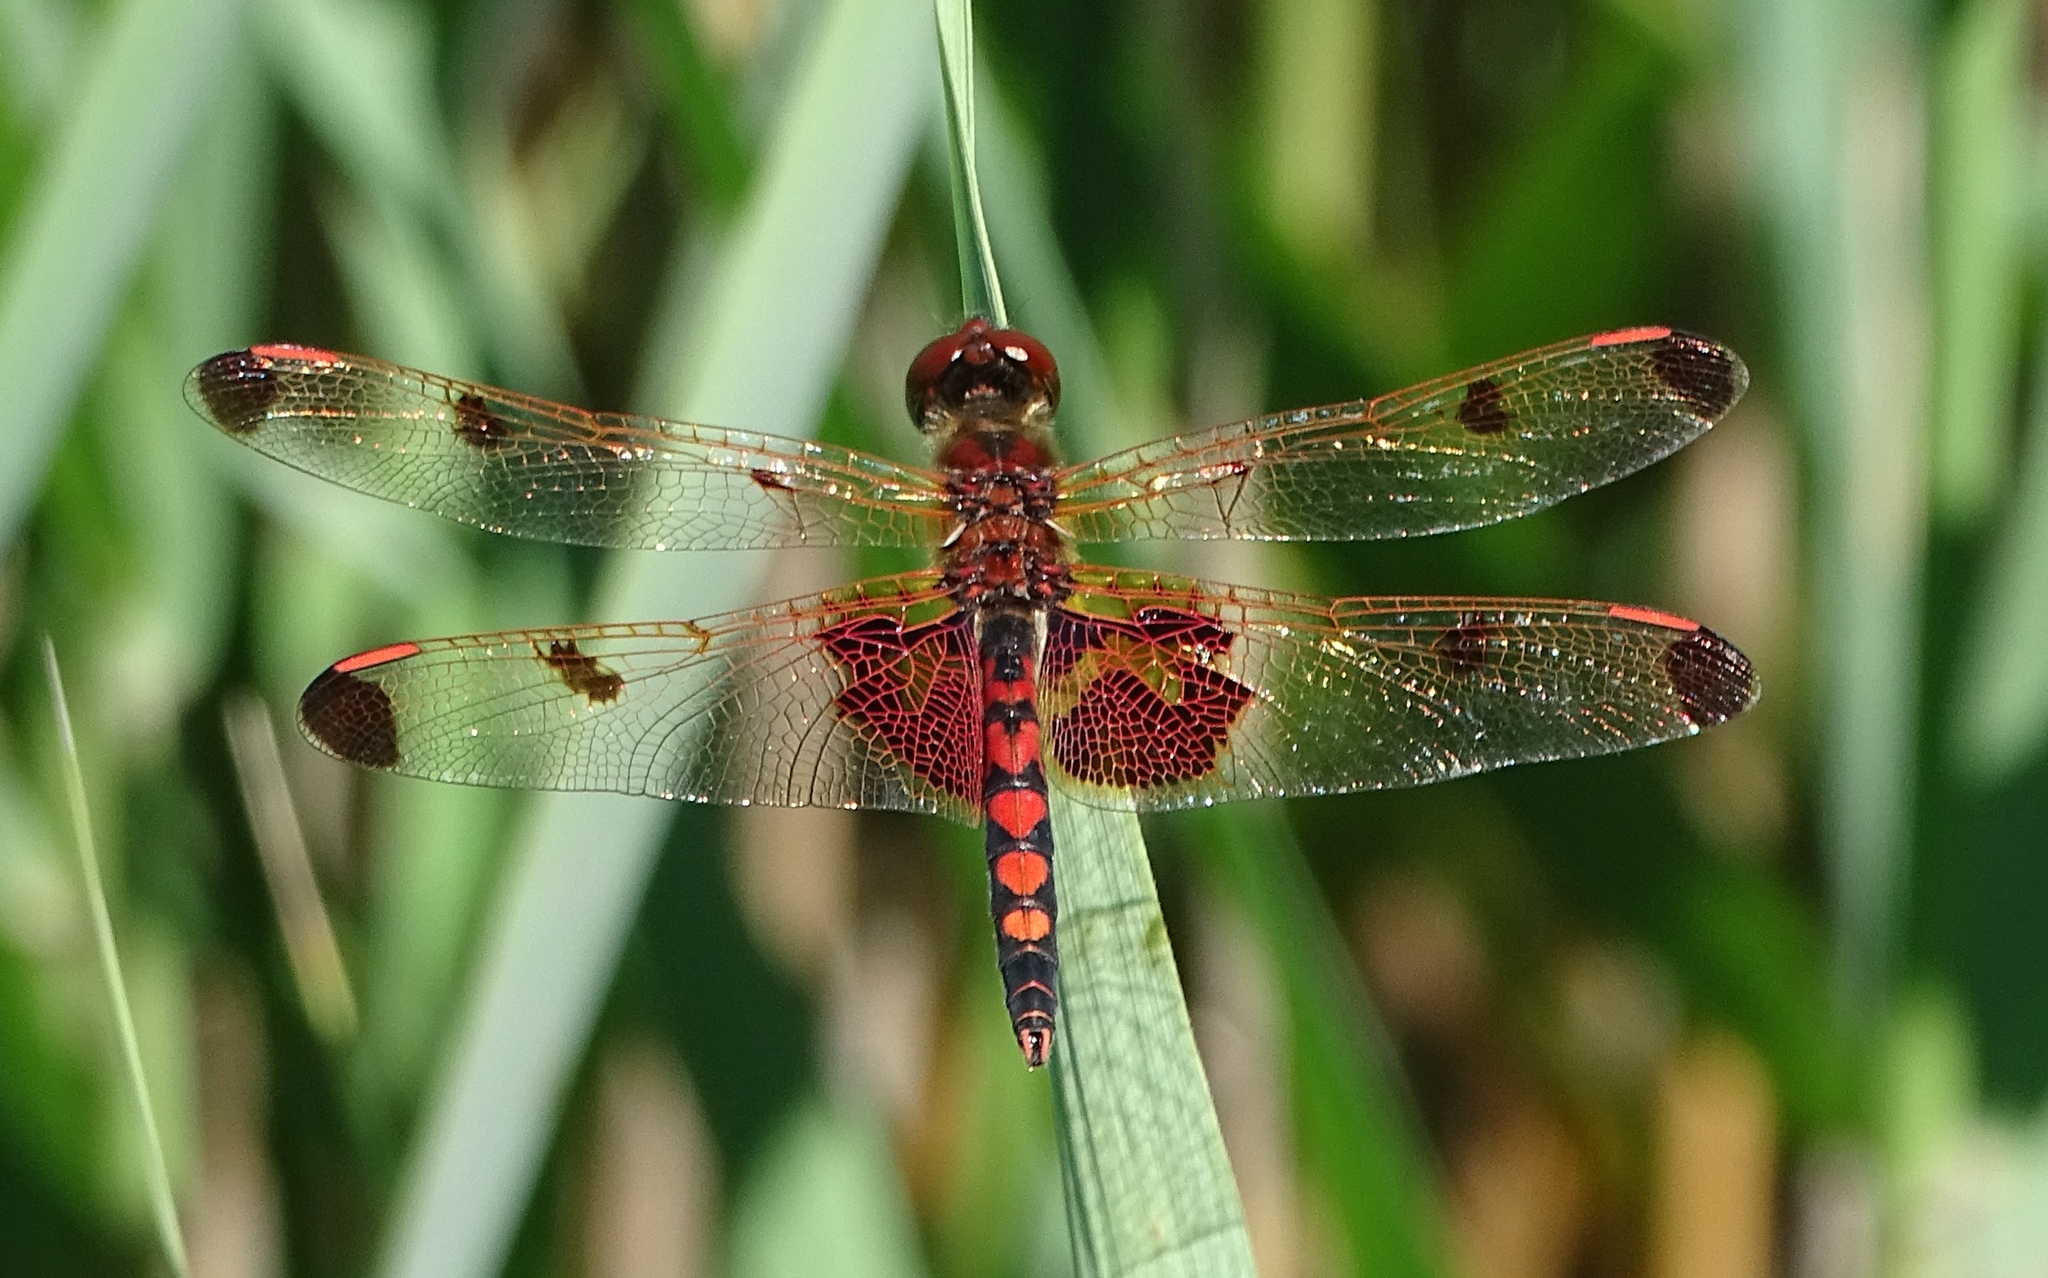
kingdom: Animalia
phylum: Arthropoda
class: Insecta
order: Odonata
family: Libellulidae
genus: Celithemis
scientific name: Celithemis elisa
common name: Calico pennant
